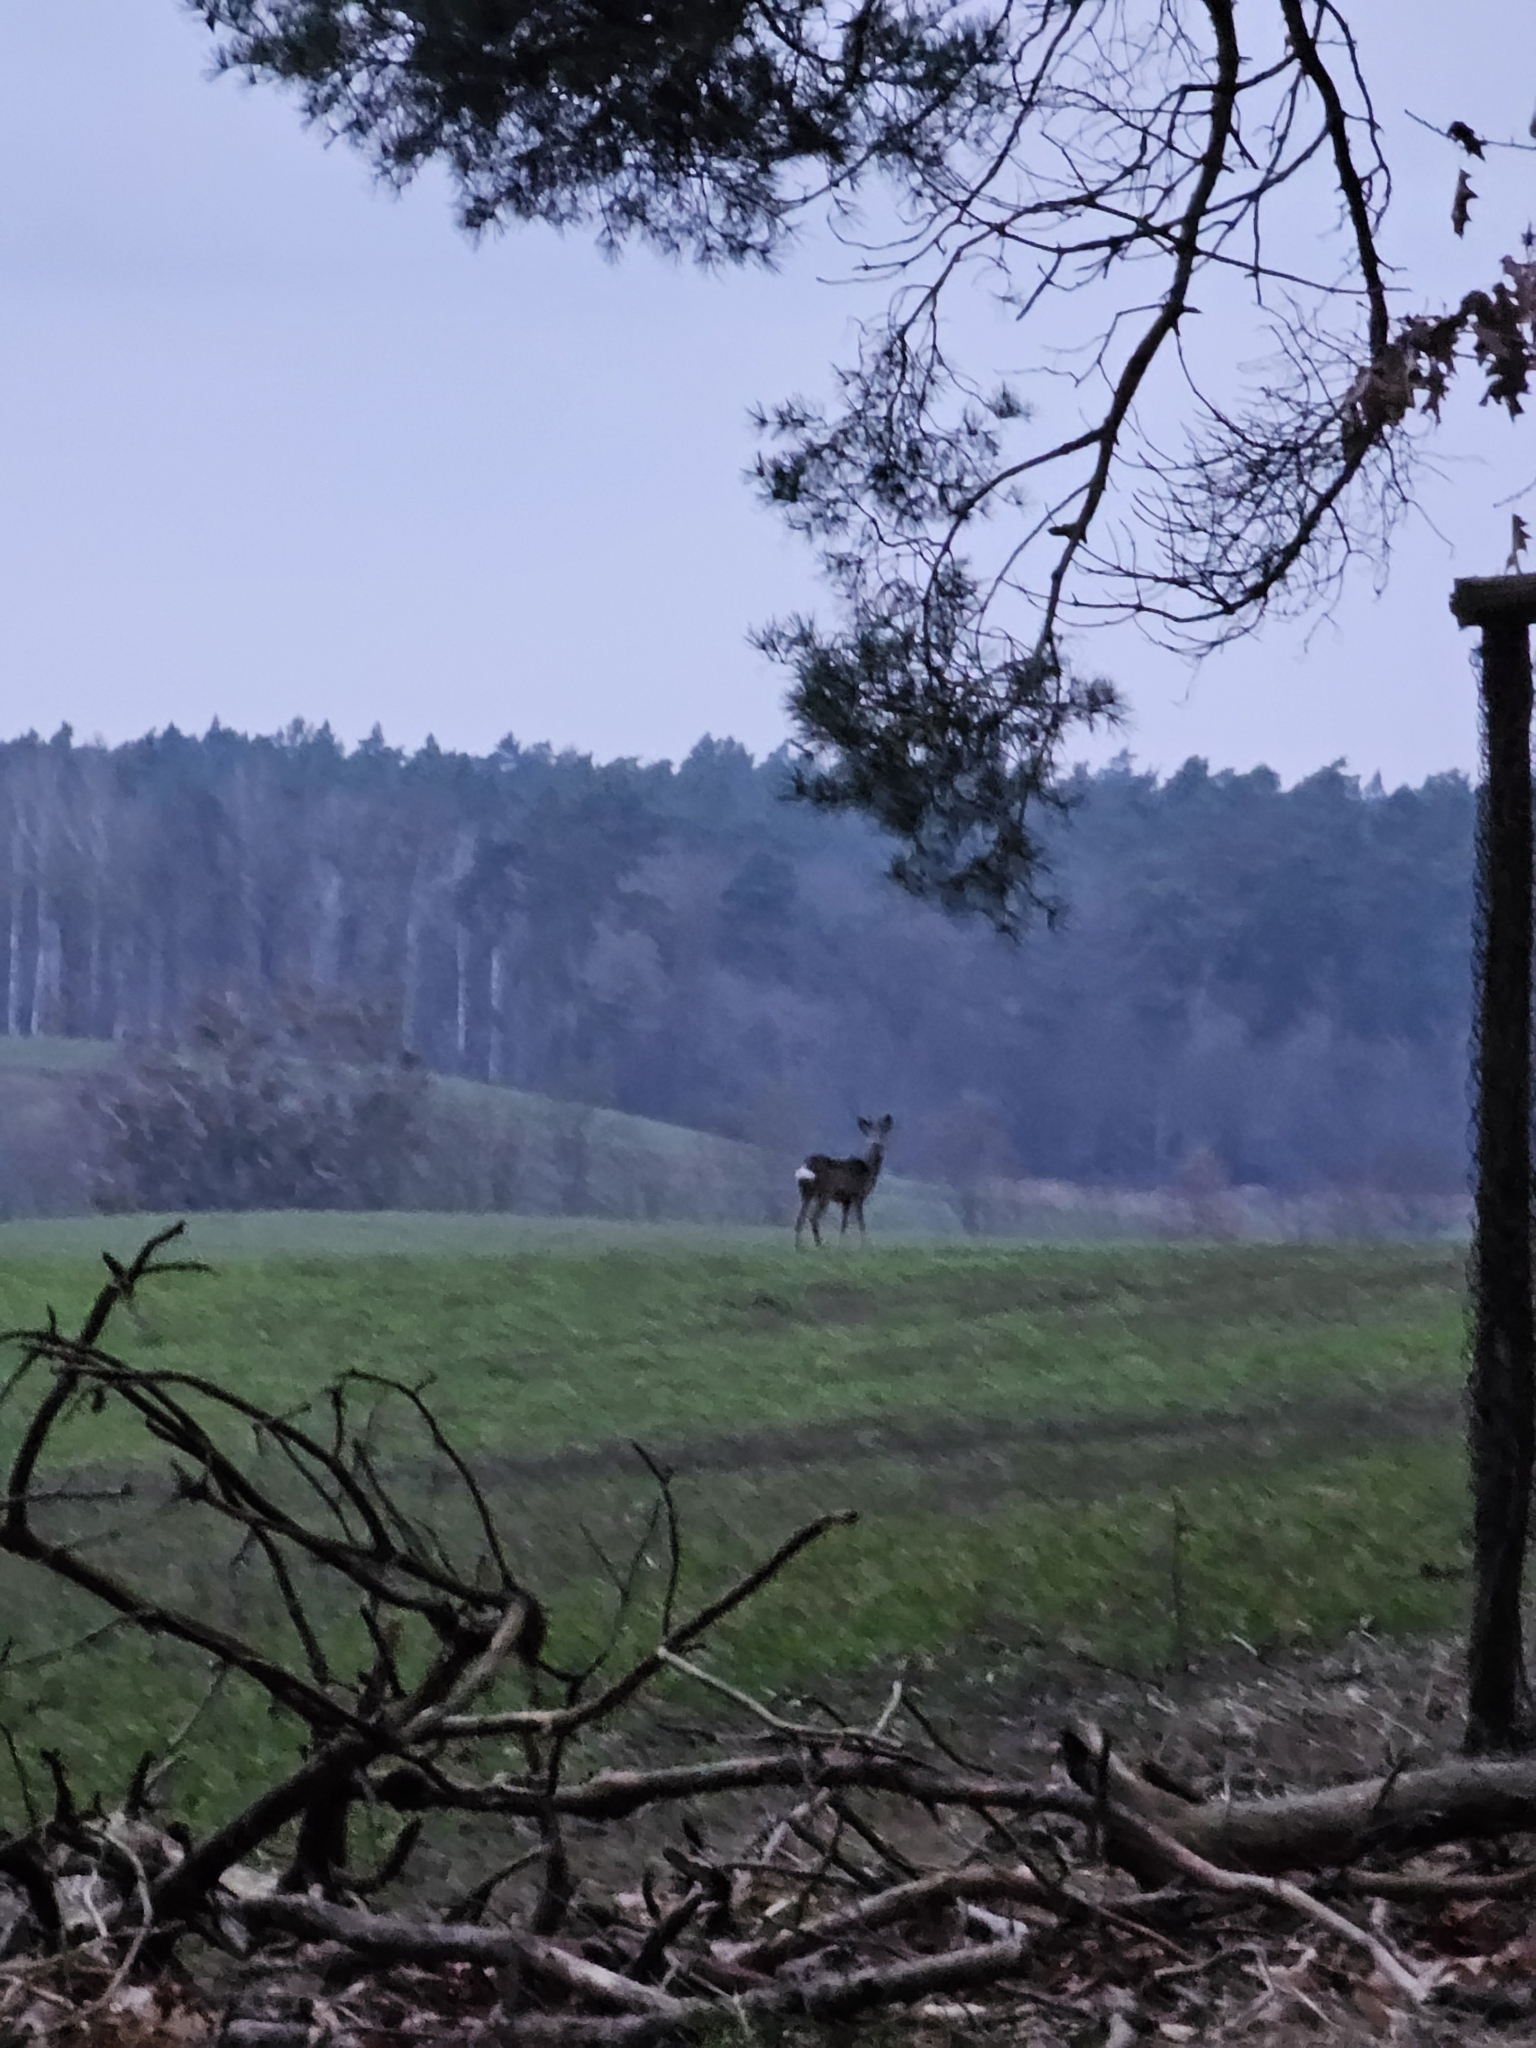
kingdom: Animalia
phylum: Chordata
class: Mammalia
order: Artiodactyla
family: Cervidae
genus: Capreolus
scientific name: Capreolus capreolus
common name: Western roe deer
